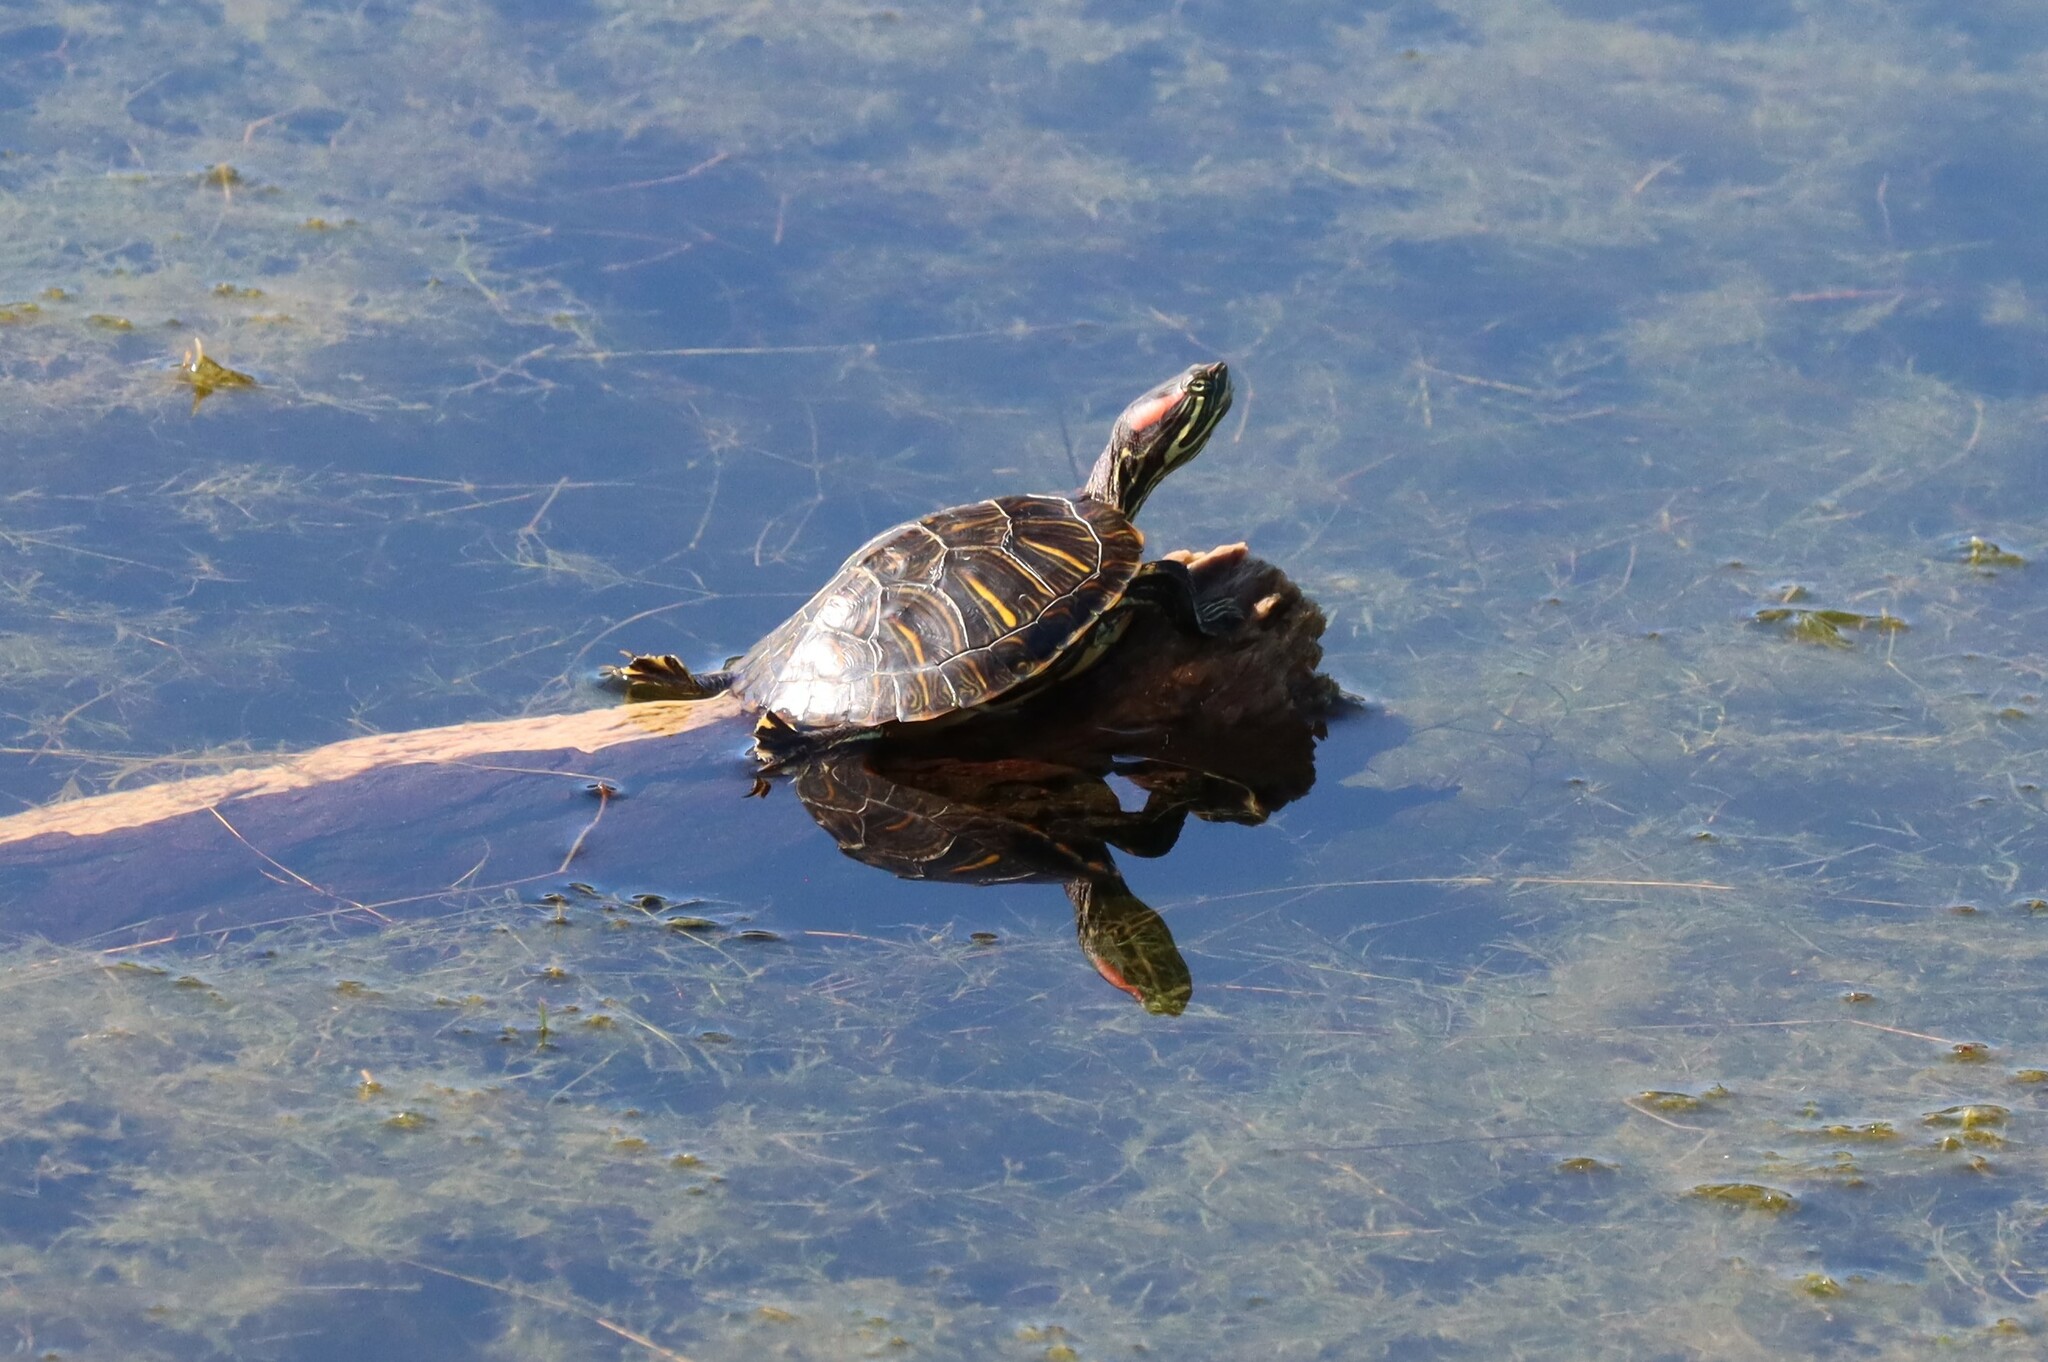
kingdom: Animalia
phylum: Chordata
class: Testudines
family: Emydidae
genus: Trachemys
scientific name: Trachemys scripta
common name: Slider
